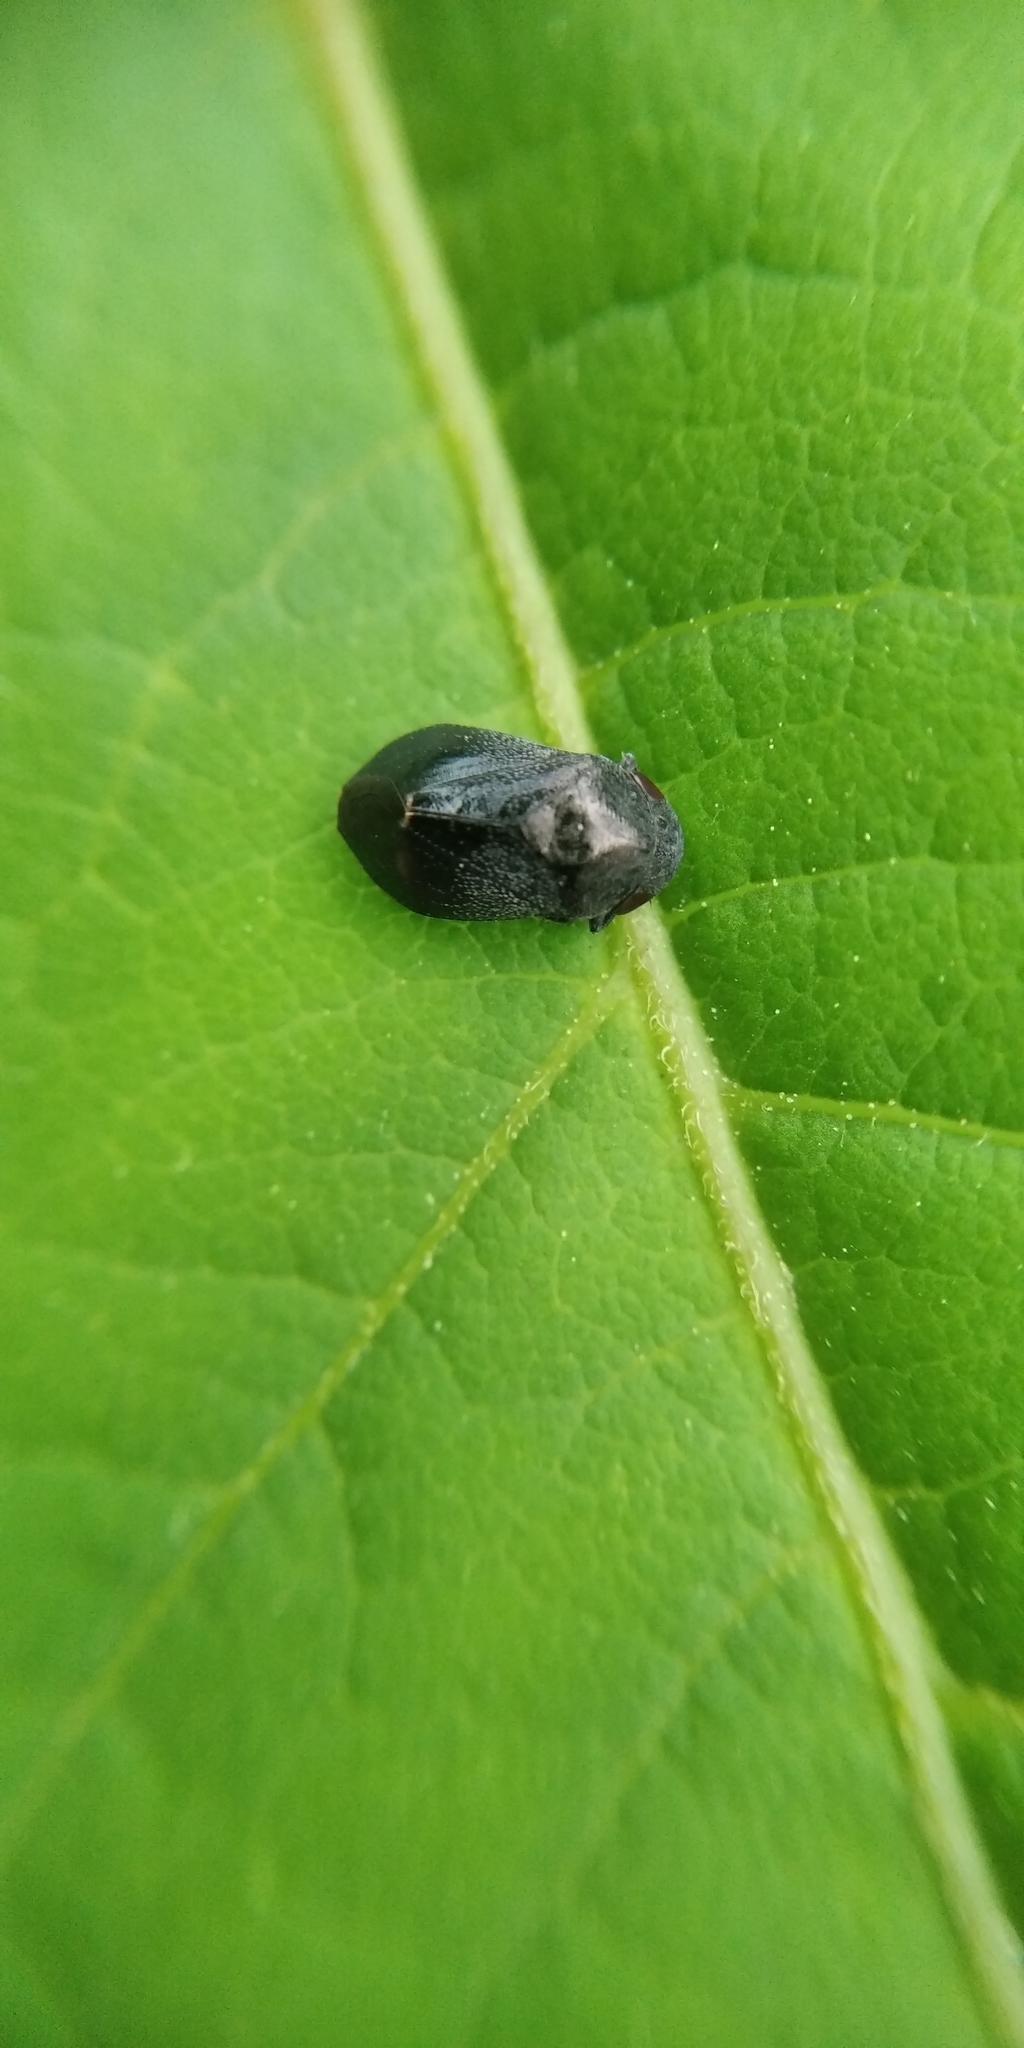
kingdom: Animalia
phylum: Arthropoda
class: Insecta
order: Hemiptera
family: Cicadellidae
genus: Penthimia
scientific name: Penthimia nigra
